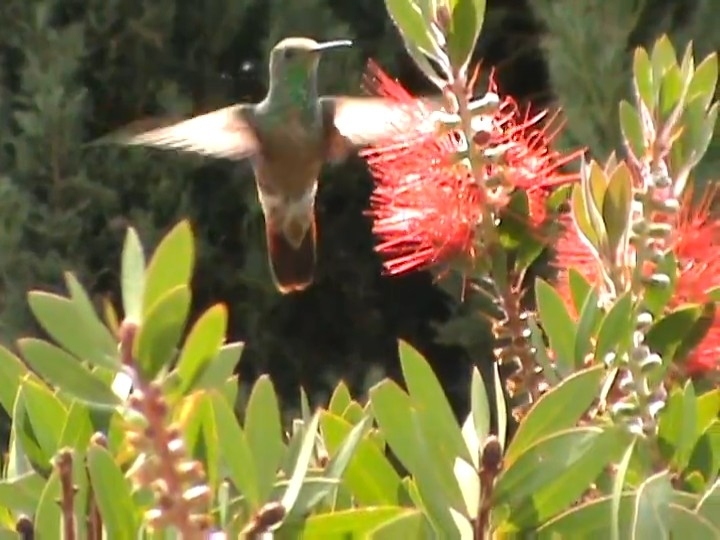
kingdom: Animalia
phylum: Chordata
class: Aves
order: Apodiformes
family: Trochilidae
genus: Saucerottia
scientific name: Saucerottia beryllina
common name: Berylline hummingbird
